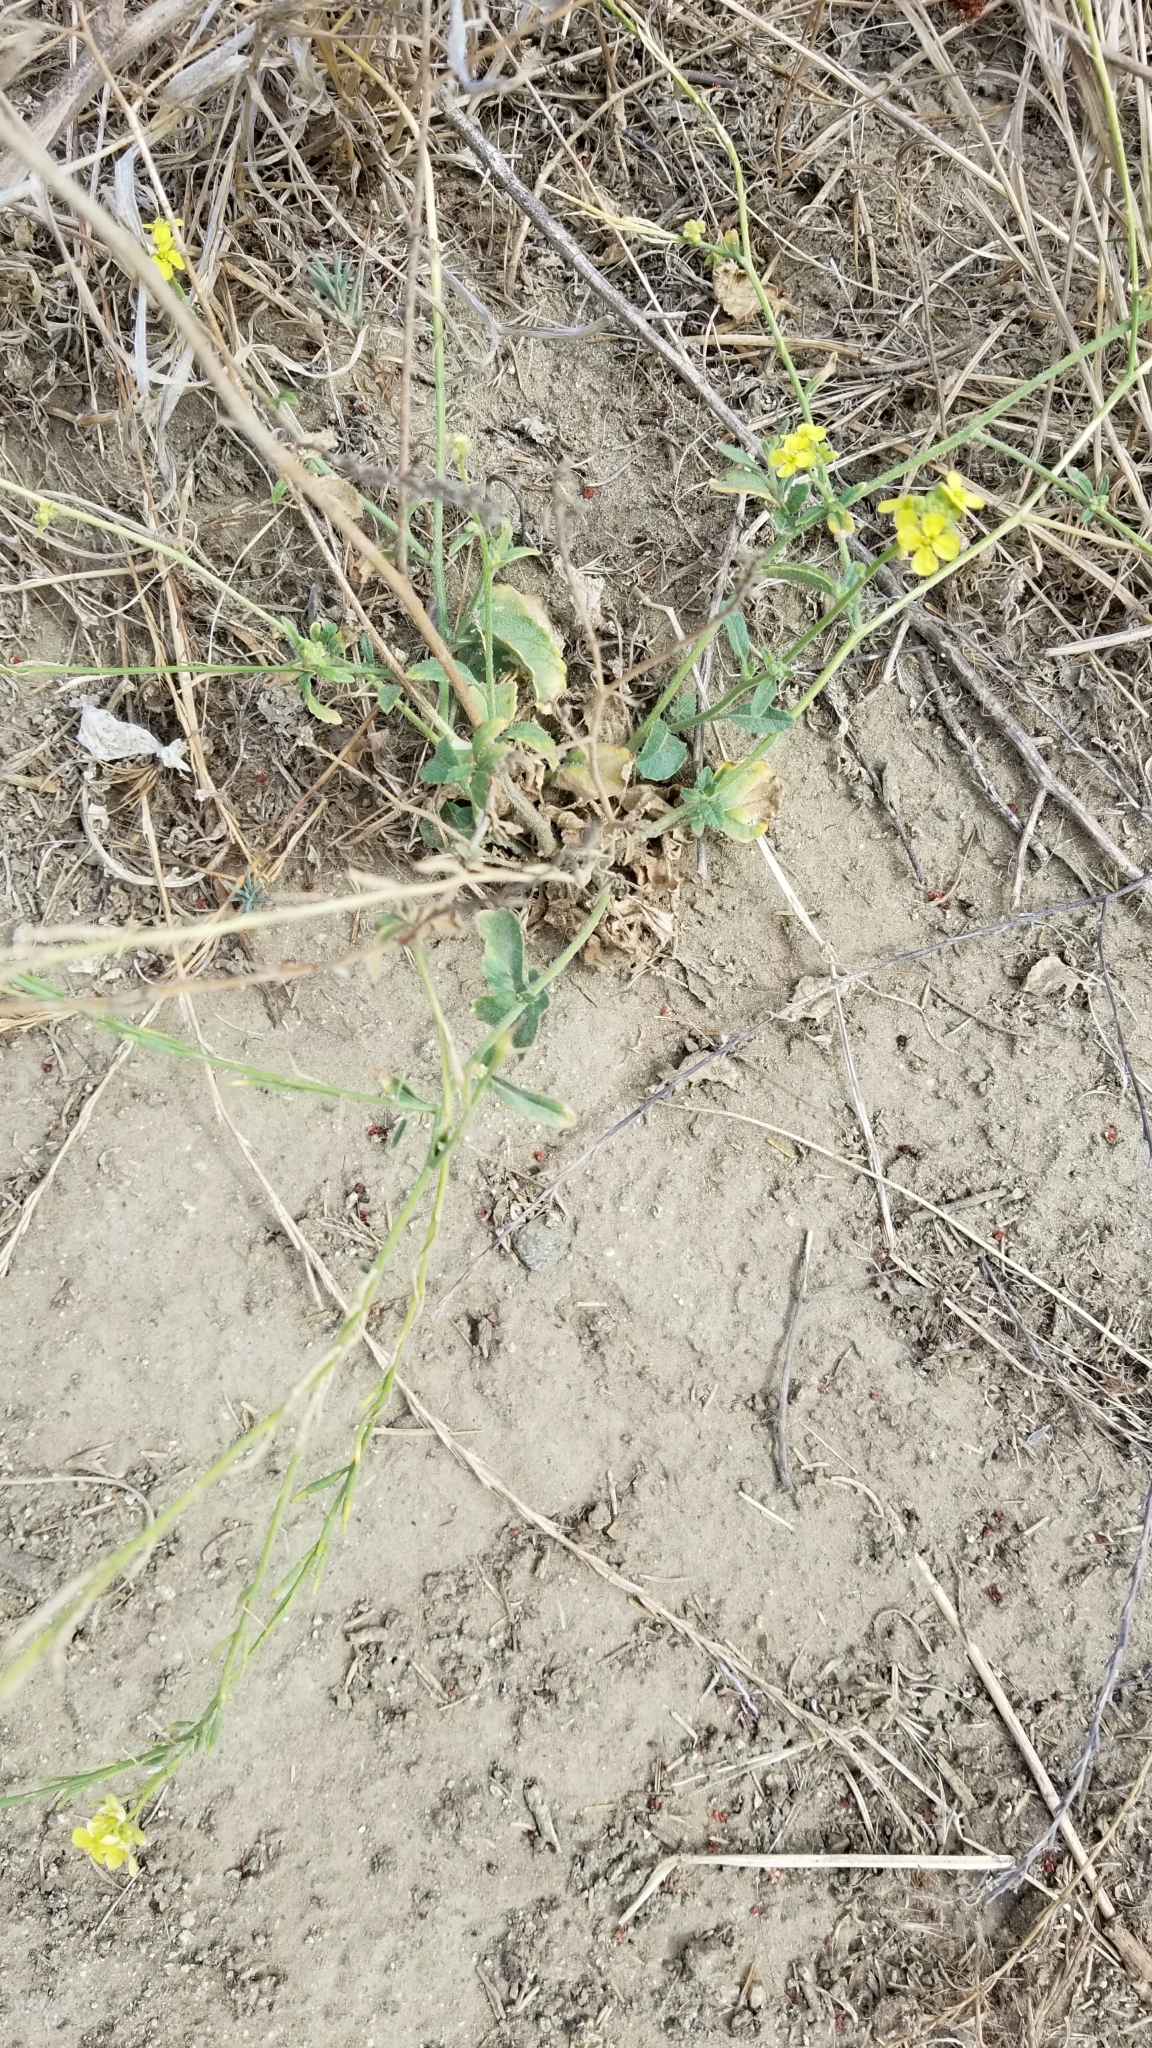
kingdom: Plantae
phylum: Tracheophyta
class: Magnoliopsida
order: Brassicales
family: Brassicaceae
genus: Hirschfeldia
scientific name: Hirschfeldia incana
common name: Hoary mustard
